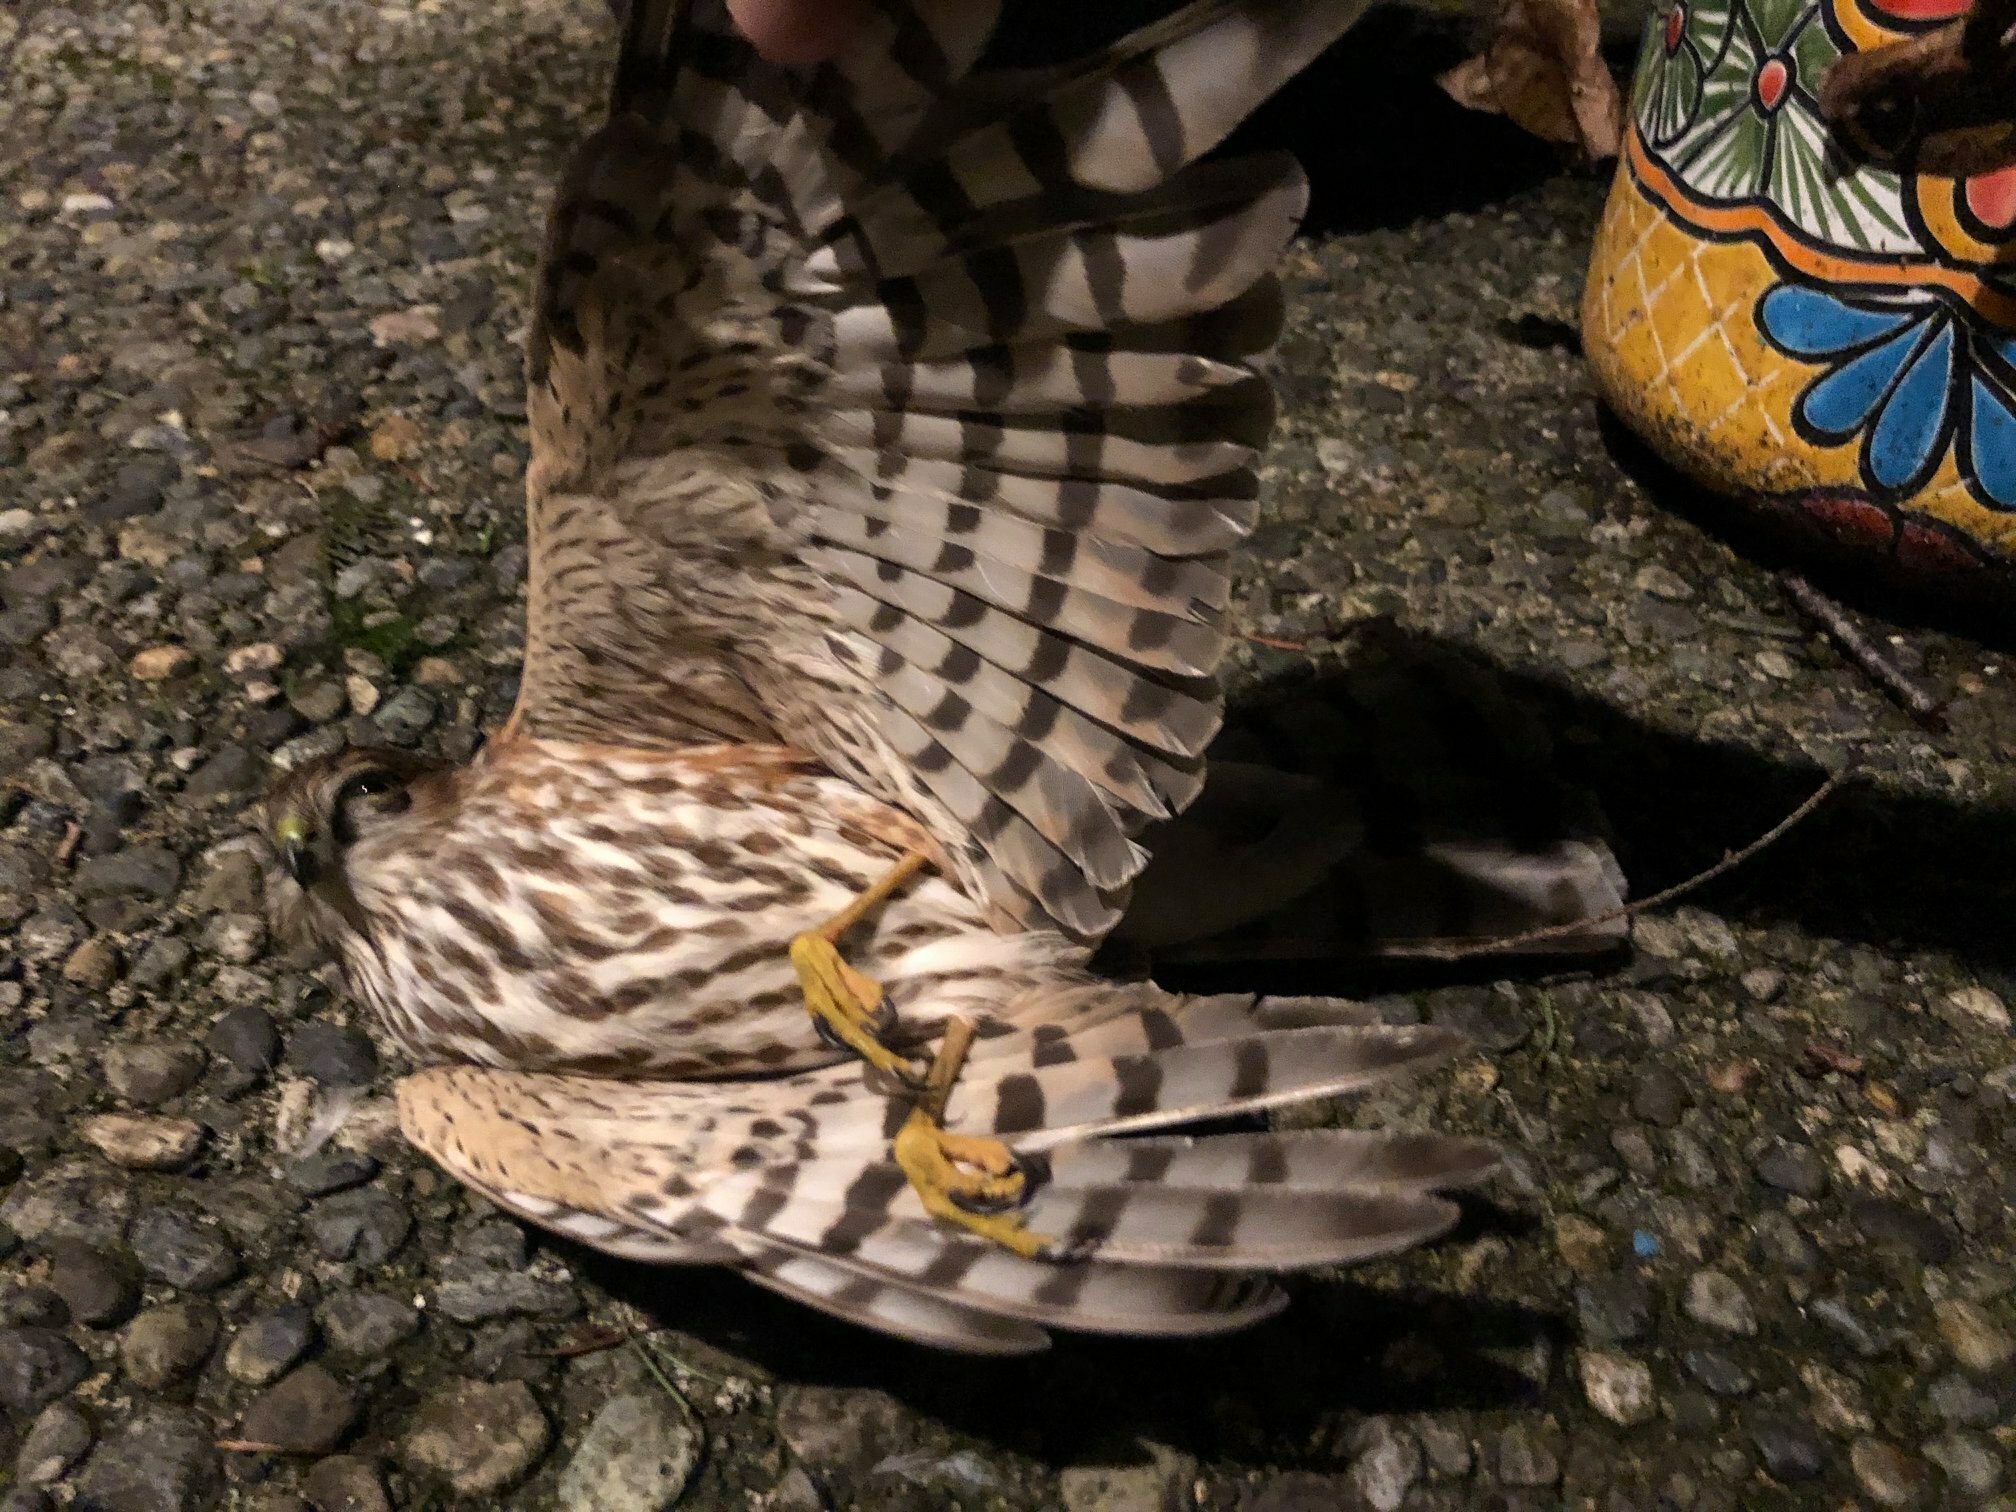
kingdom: Animalia
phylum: Chordata
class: Aves
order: Accipitriformes
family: Accipitridae
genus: Accipiter
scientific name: Accipiter striatus
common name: Sharp-shinned hawk
